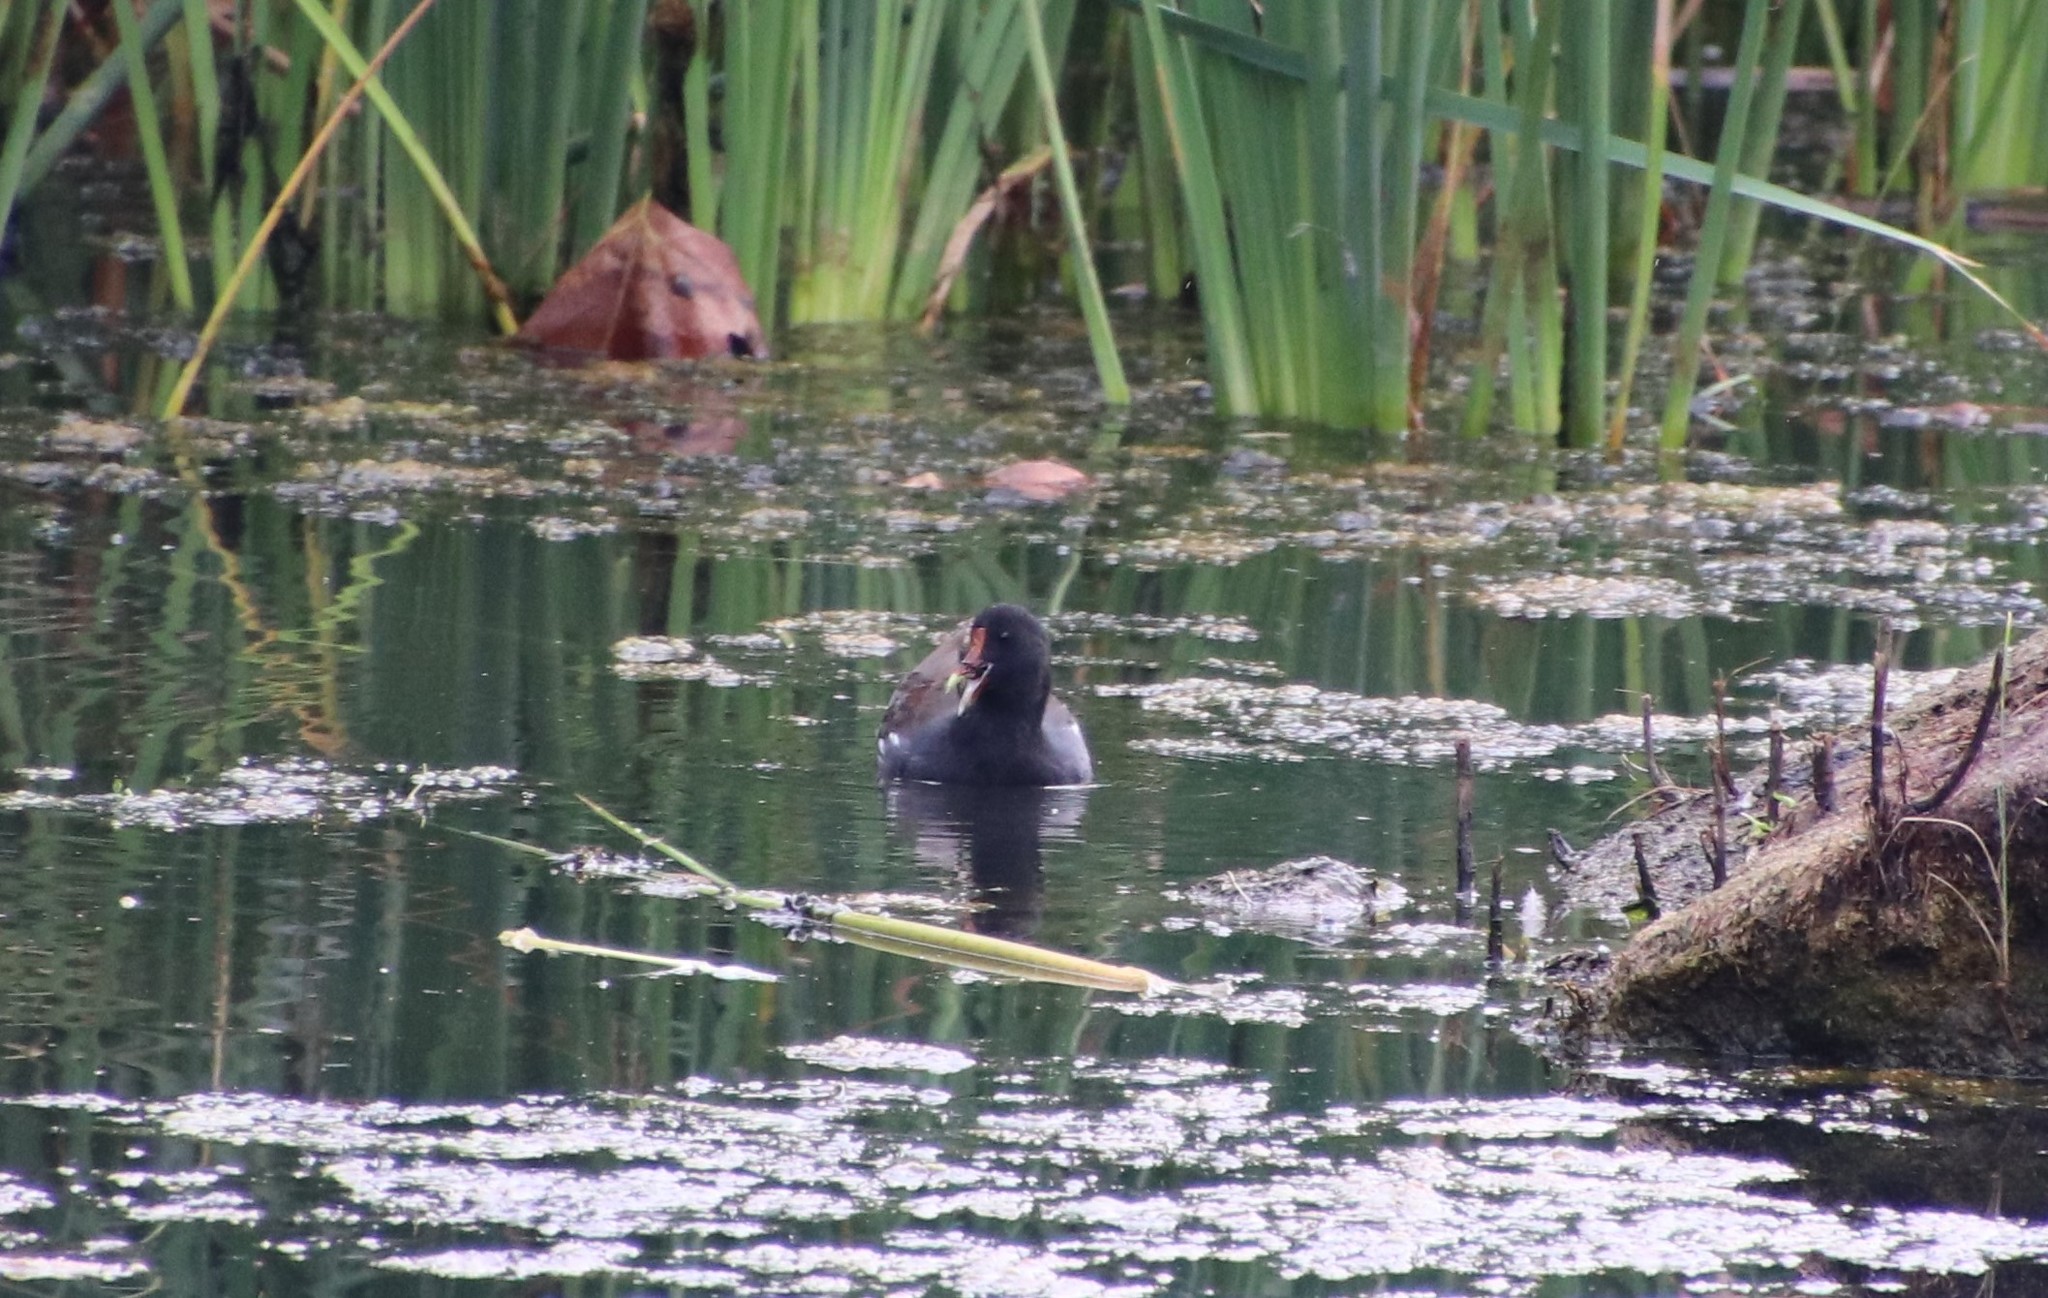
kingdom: Animalia
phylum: Chordata
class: Aves
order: Gruiformes
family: Rallidae
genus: Gallinula
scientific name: Gallinula chloropus
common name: Common moorhen
